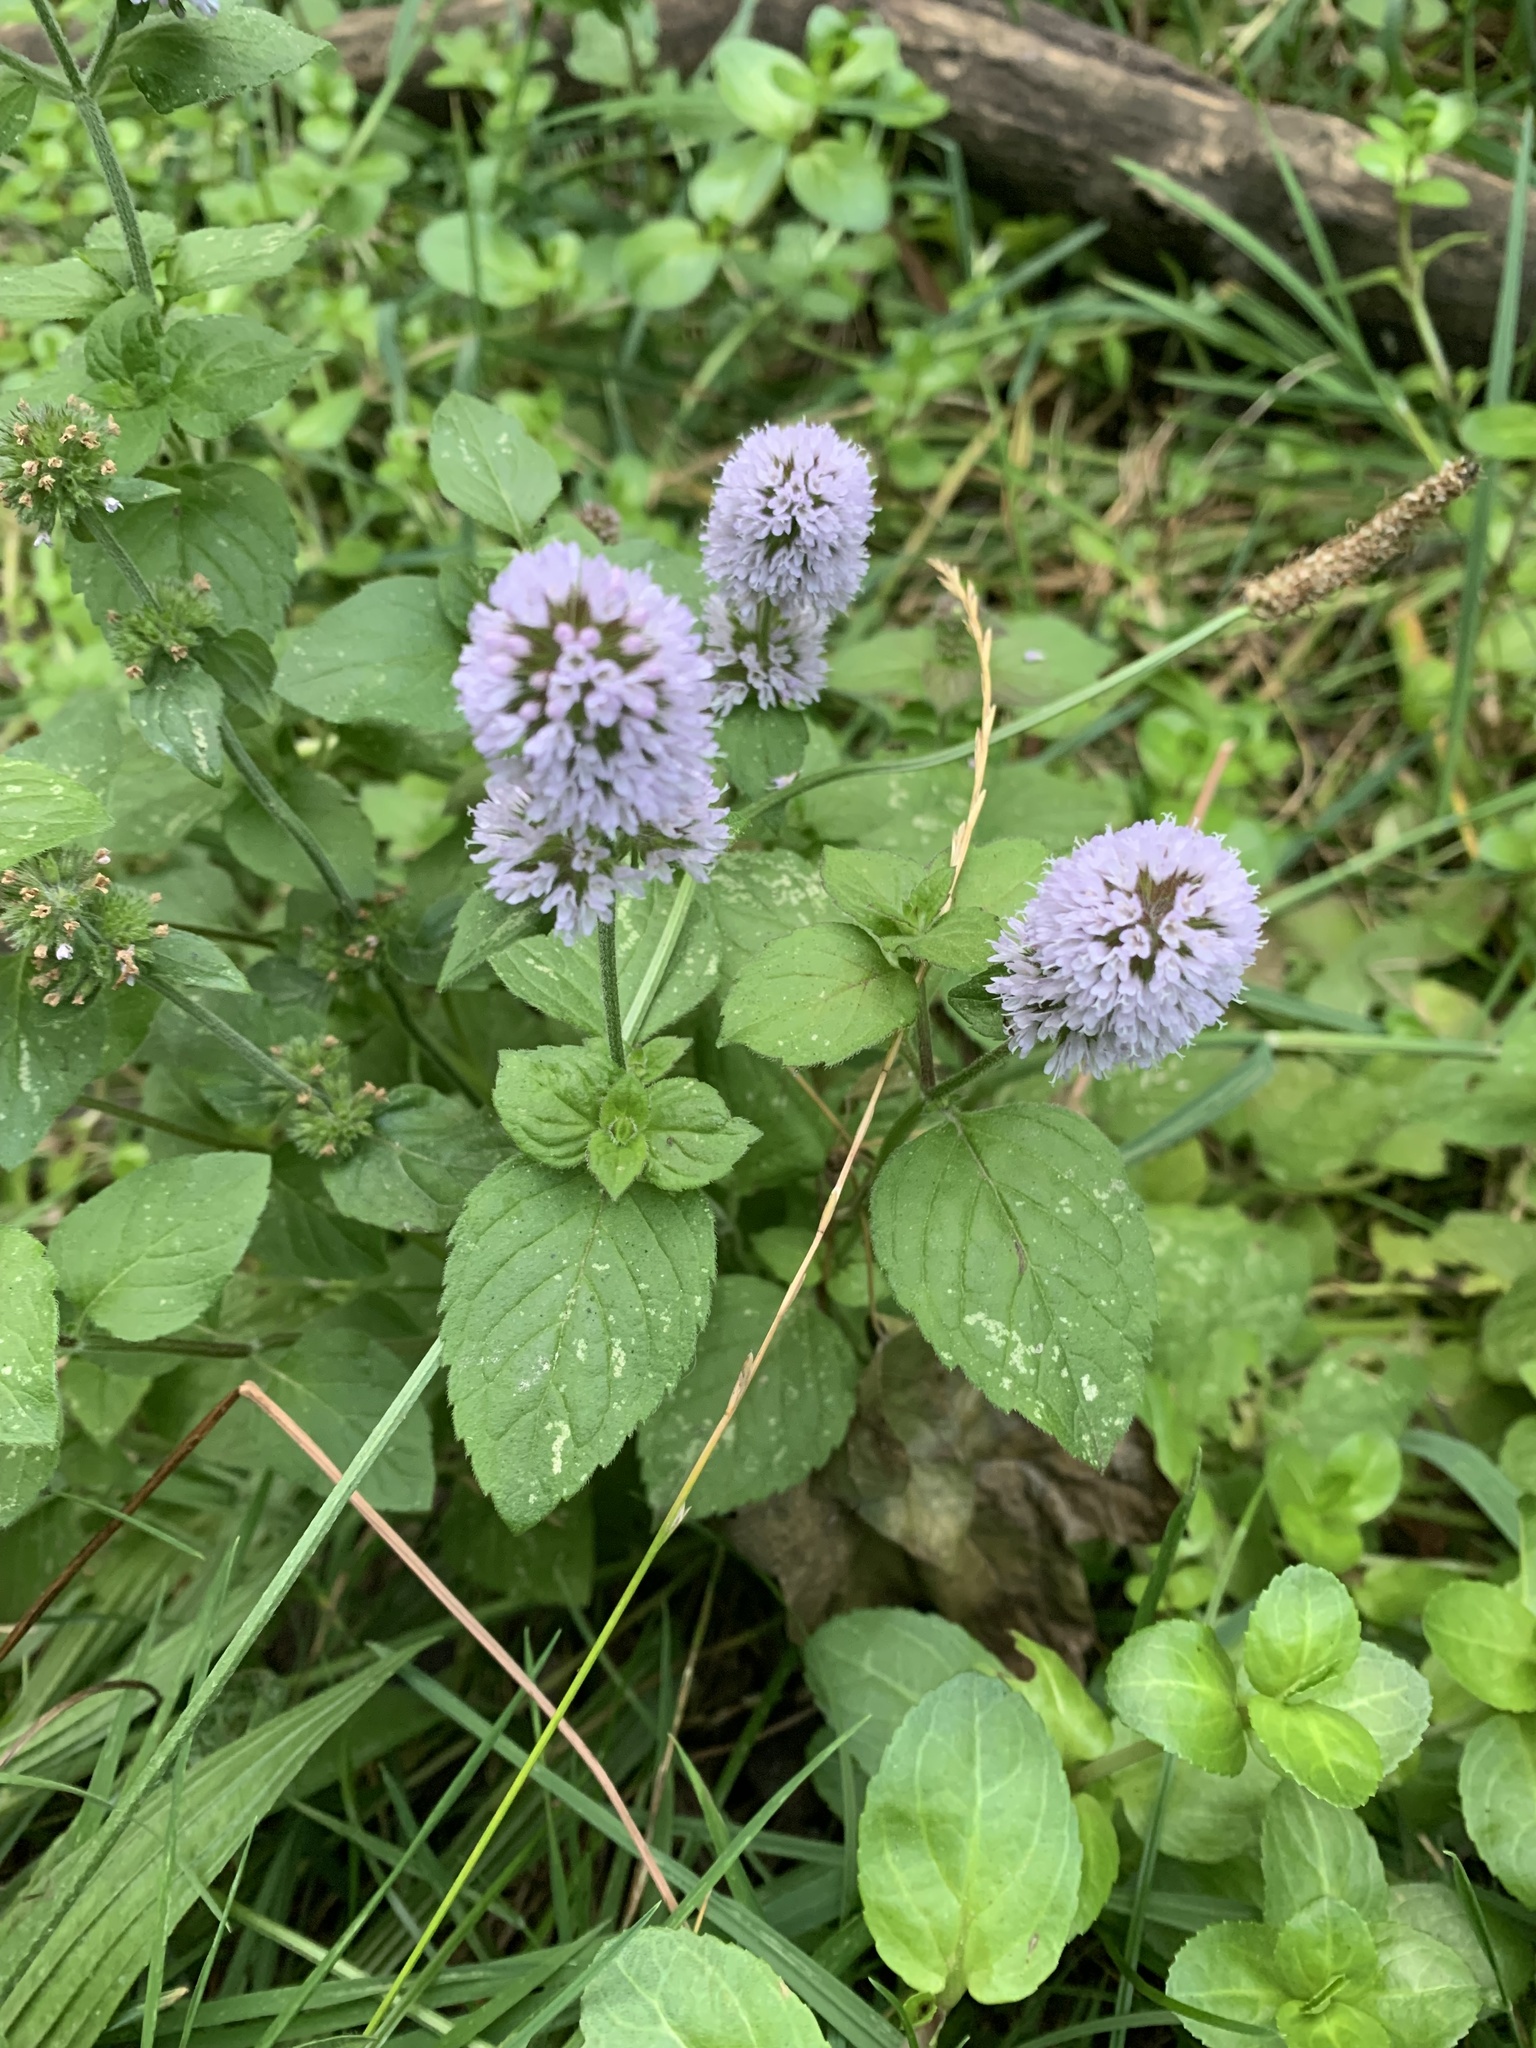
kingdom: Plantae
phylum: Tracheophyta
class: Magnoliopsida
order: Lamiales
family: Lamiaceae
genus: Mentha
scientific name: Mentha aquatica
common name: Water mint
